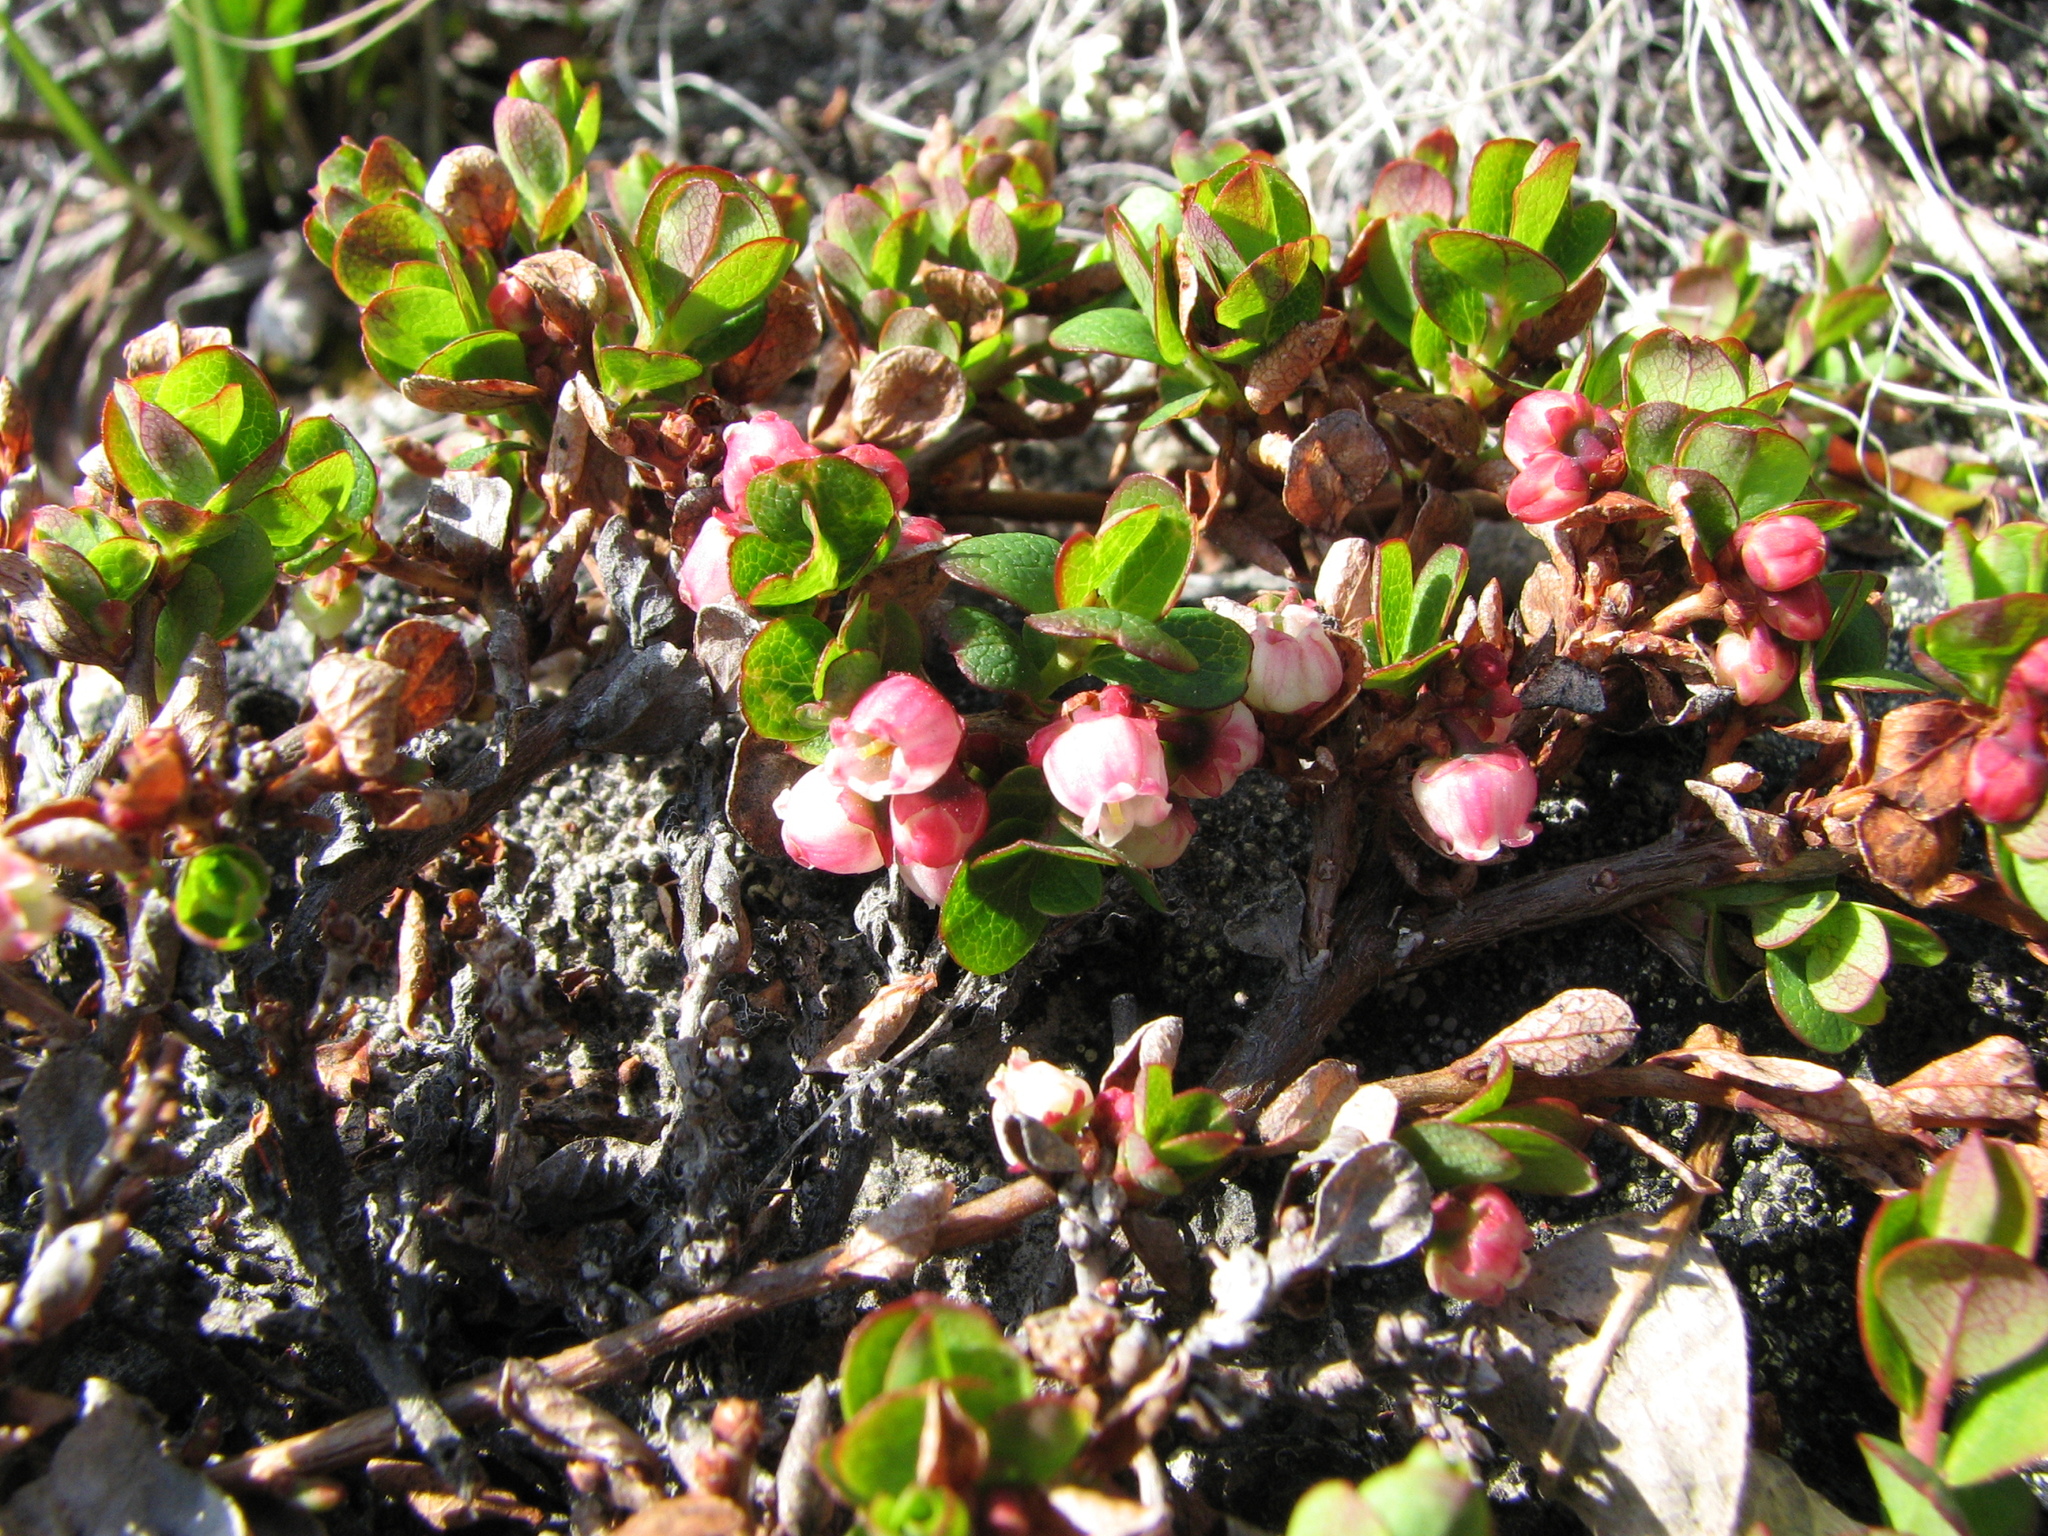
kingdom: Plantae
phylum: Tracheophyta
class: Magnoliopsida
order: Ericales
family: Ericaceae
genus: Vaccinium
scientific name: Vaccinium uliginosum
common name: Bog bilberry
